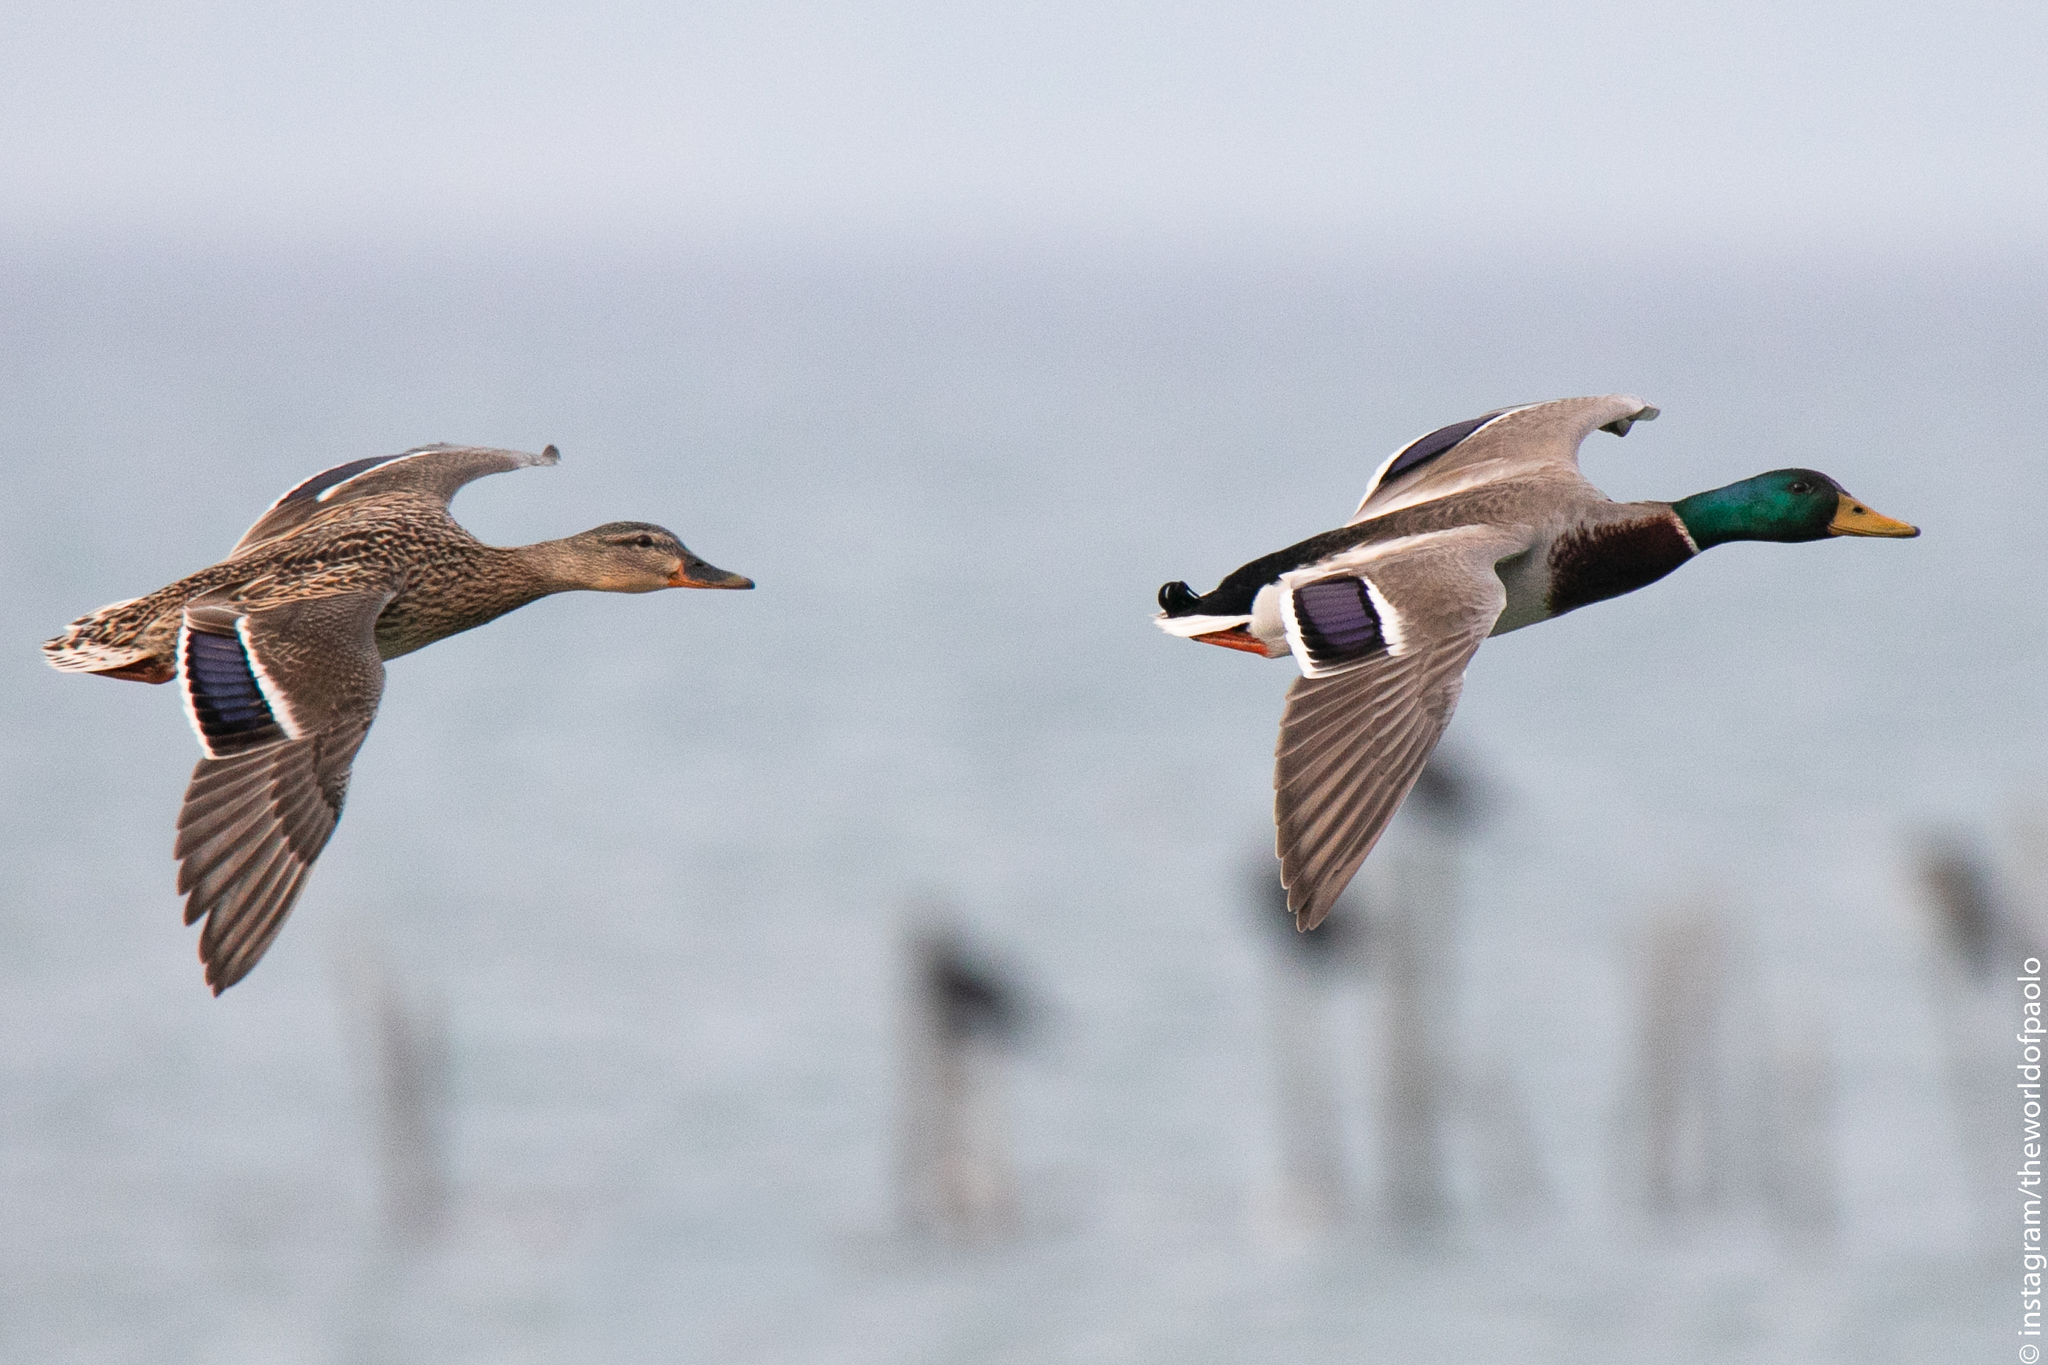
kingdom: Animalia
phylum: Chordata
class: Aves
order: Anseriformes
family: Anatidae
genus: Anas
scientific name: Anas platyrhynchos
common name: Mallard
